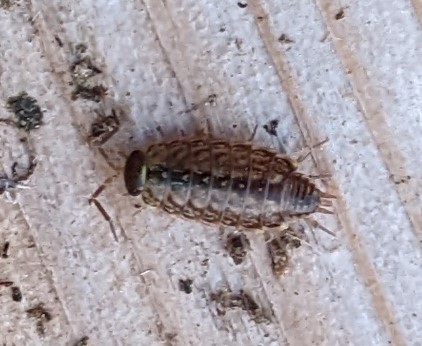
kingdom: Animalia
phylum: Arthropoda
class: Malacostraca
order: Isopoda
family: Philosciidae
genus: Philoscia
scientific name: Philoscia muscorum
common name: Common striped woodlouse
